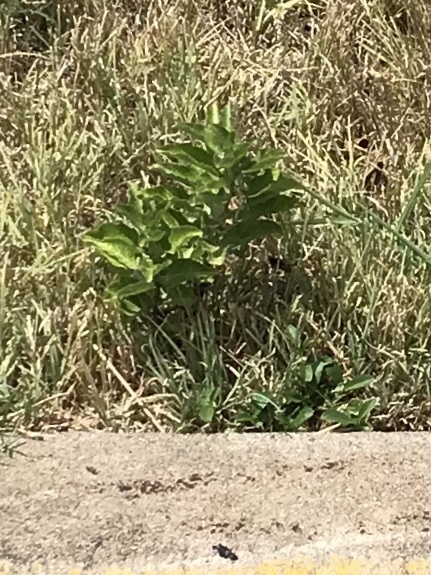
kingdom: Plantae
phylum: Tracheophyta
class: Magnoliopsida
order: Gentianales
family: Apocynaceae
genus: Asclepias
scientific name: Asclepias oenotheroides
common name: Zizotes milkweed
